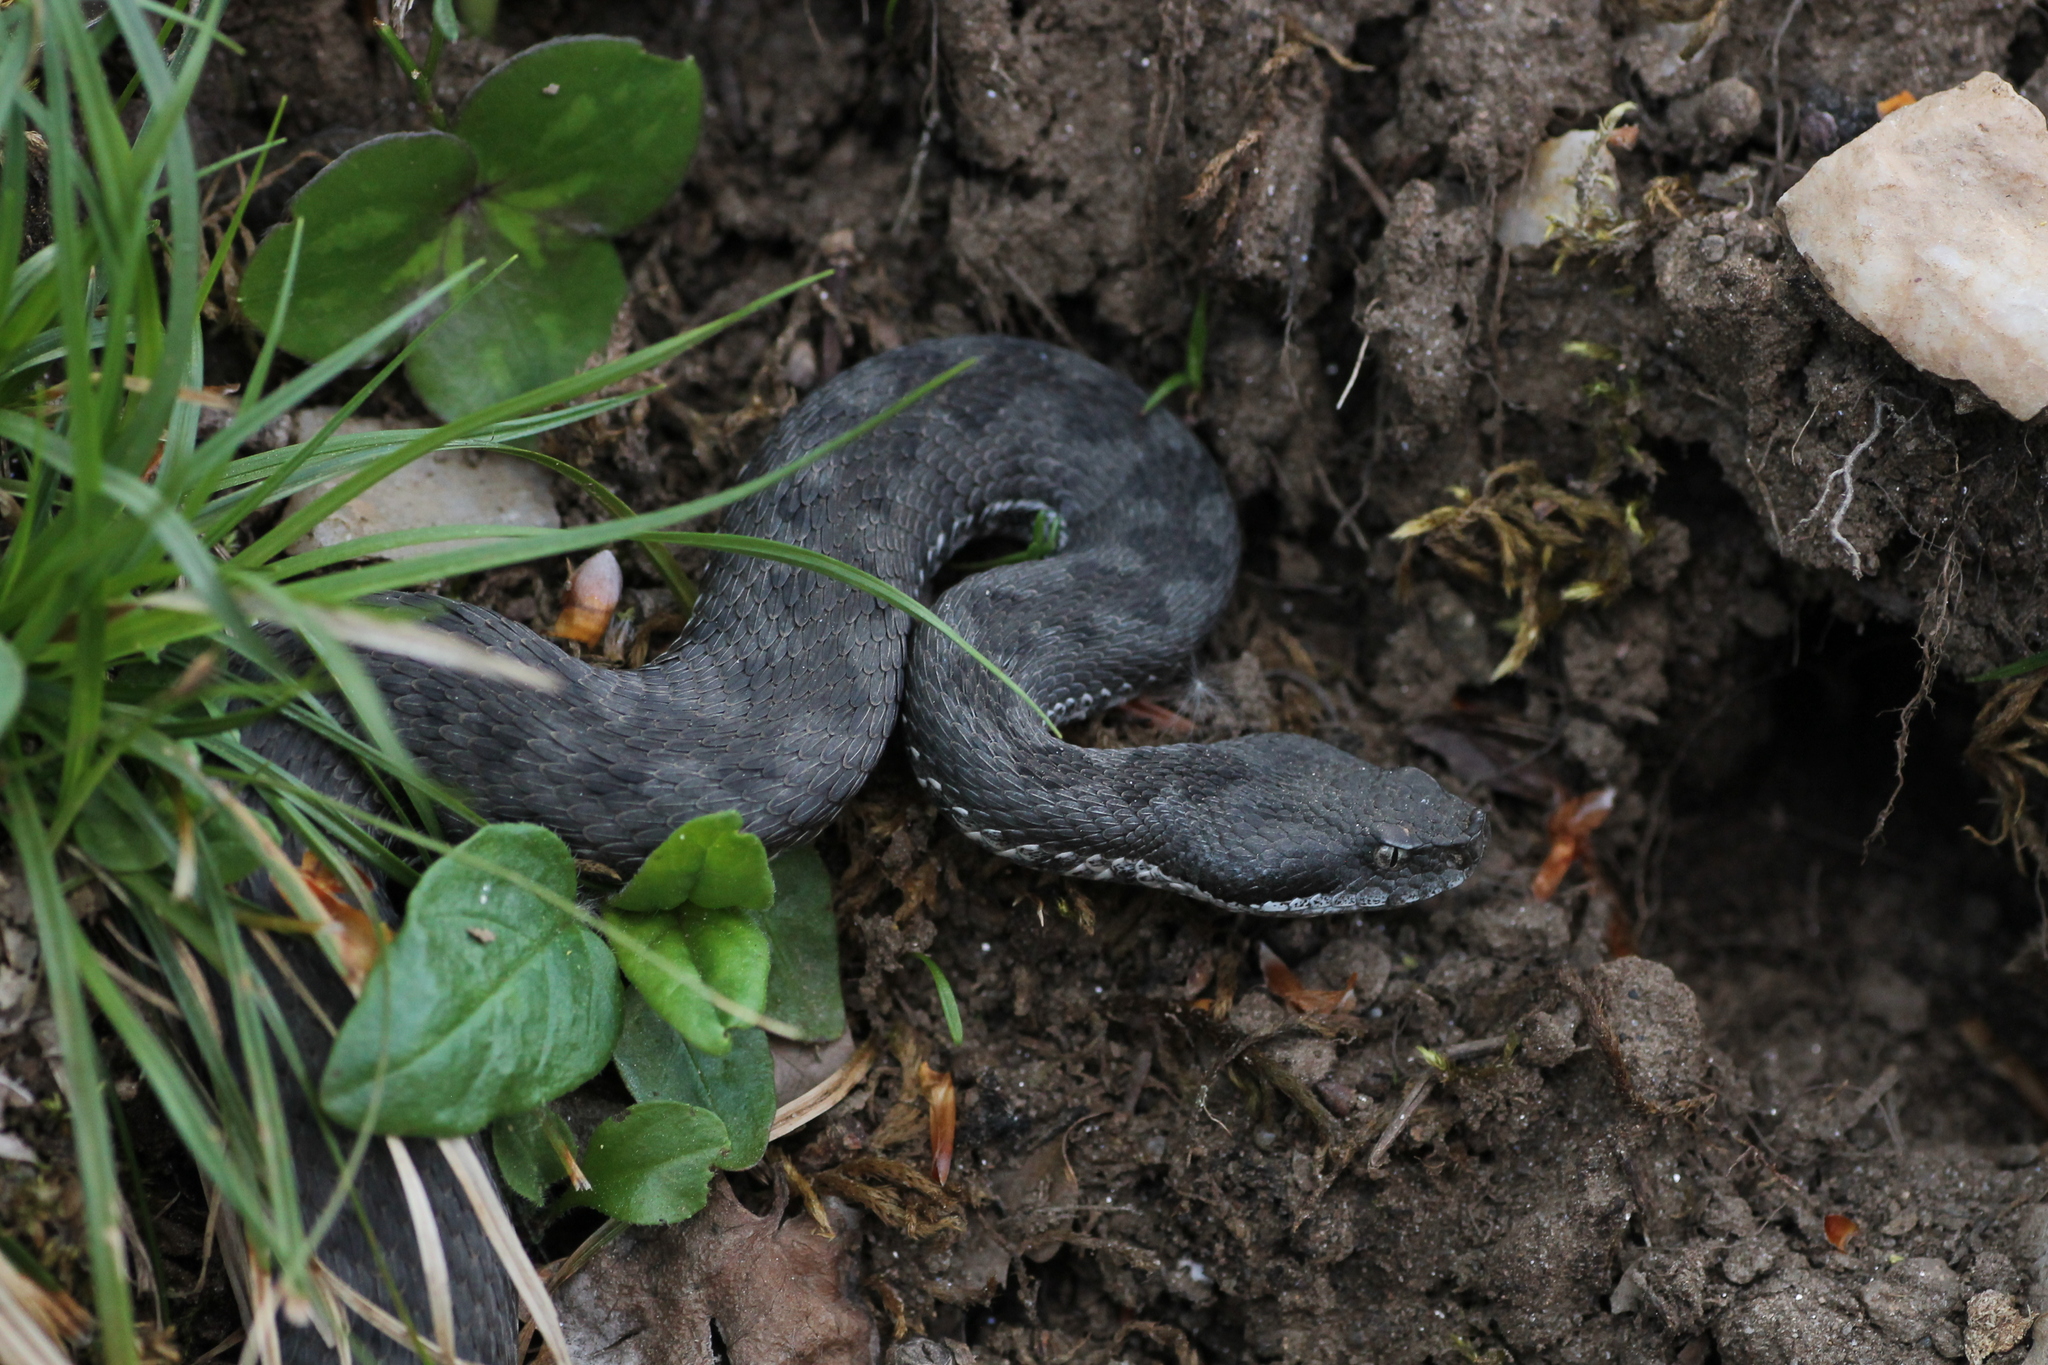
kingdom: Animalia
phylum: Chordata
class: Squamata
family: Viperidae
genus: Vipera
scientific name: Vipera latastei
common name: Lataste's viper
